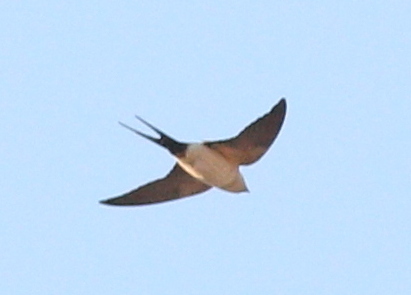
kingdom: Animalia
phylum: Chordata
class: Aves
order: Passeriformes
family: Hirundinidae
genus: Cecropis
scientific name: Cecropis daurica
